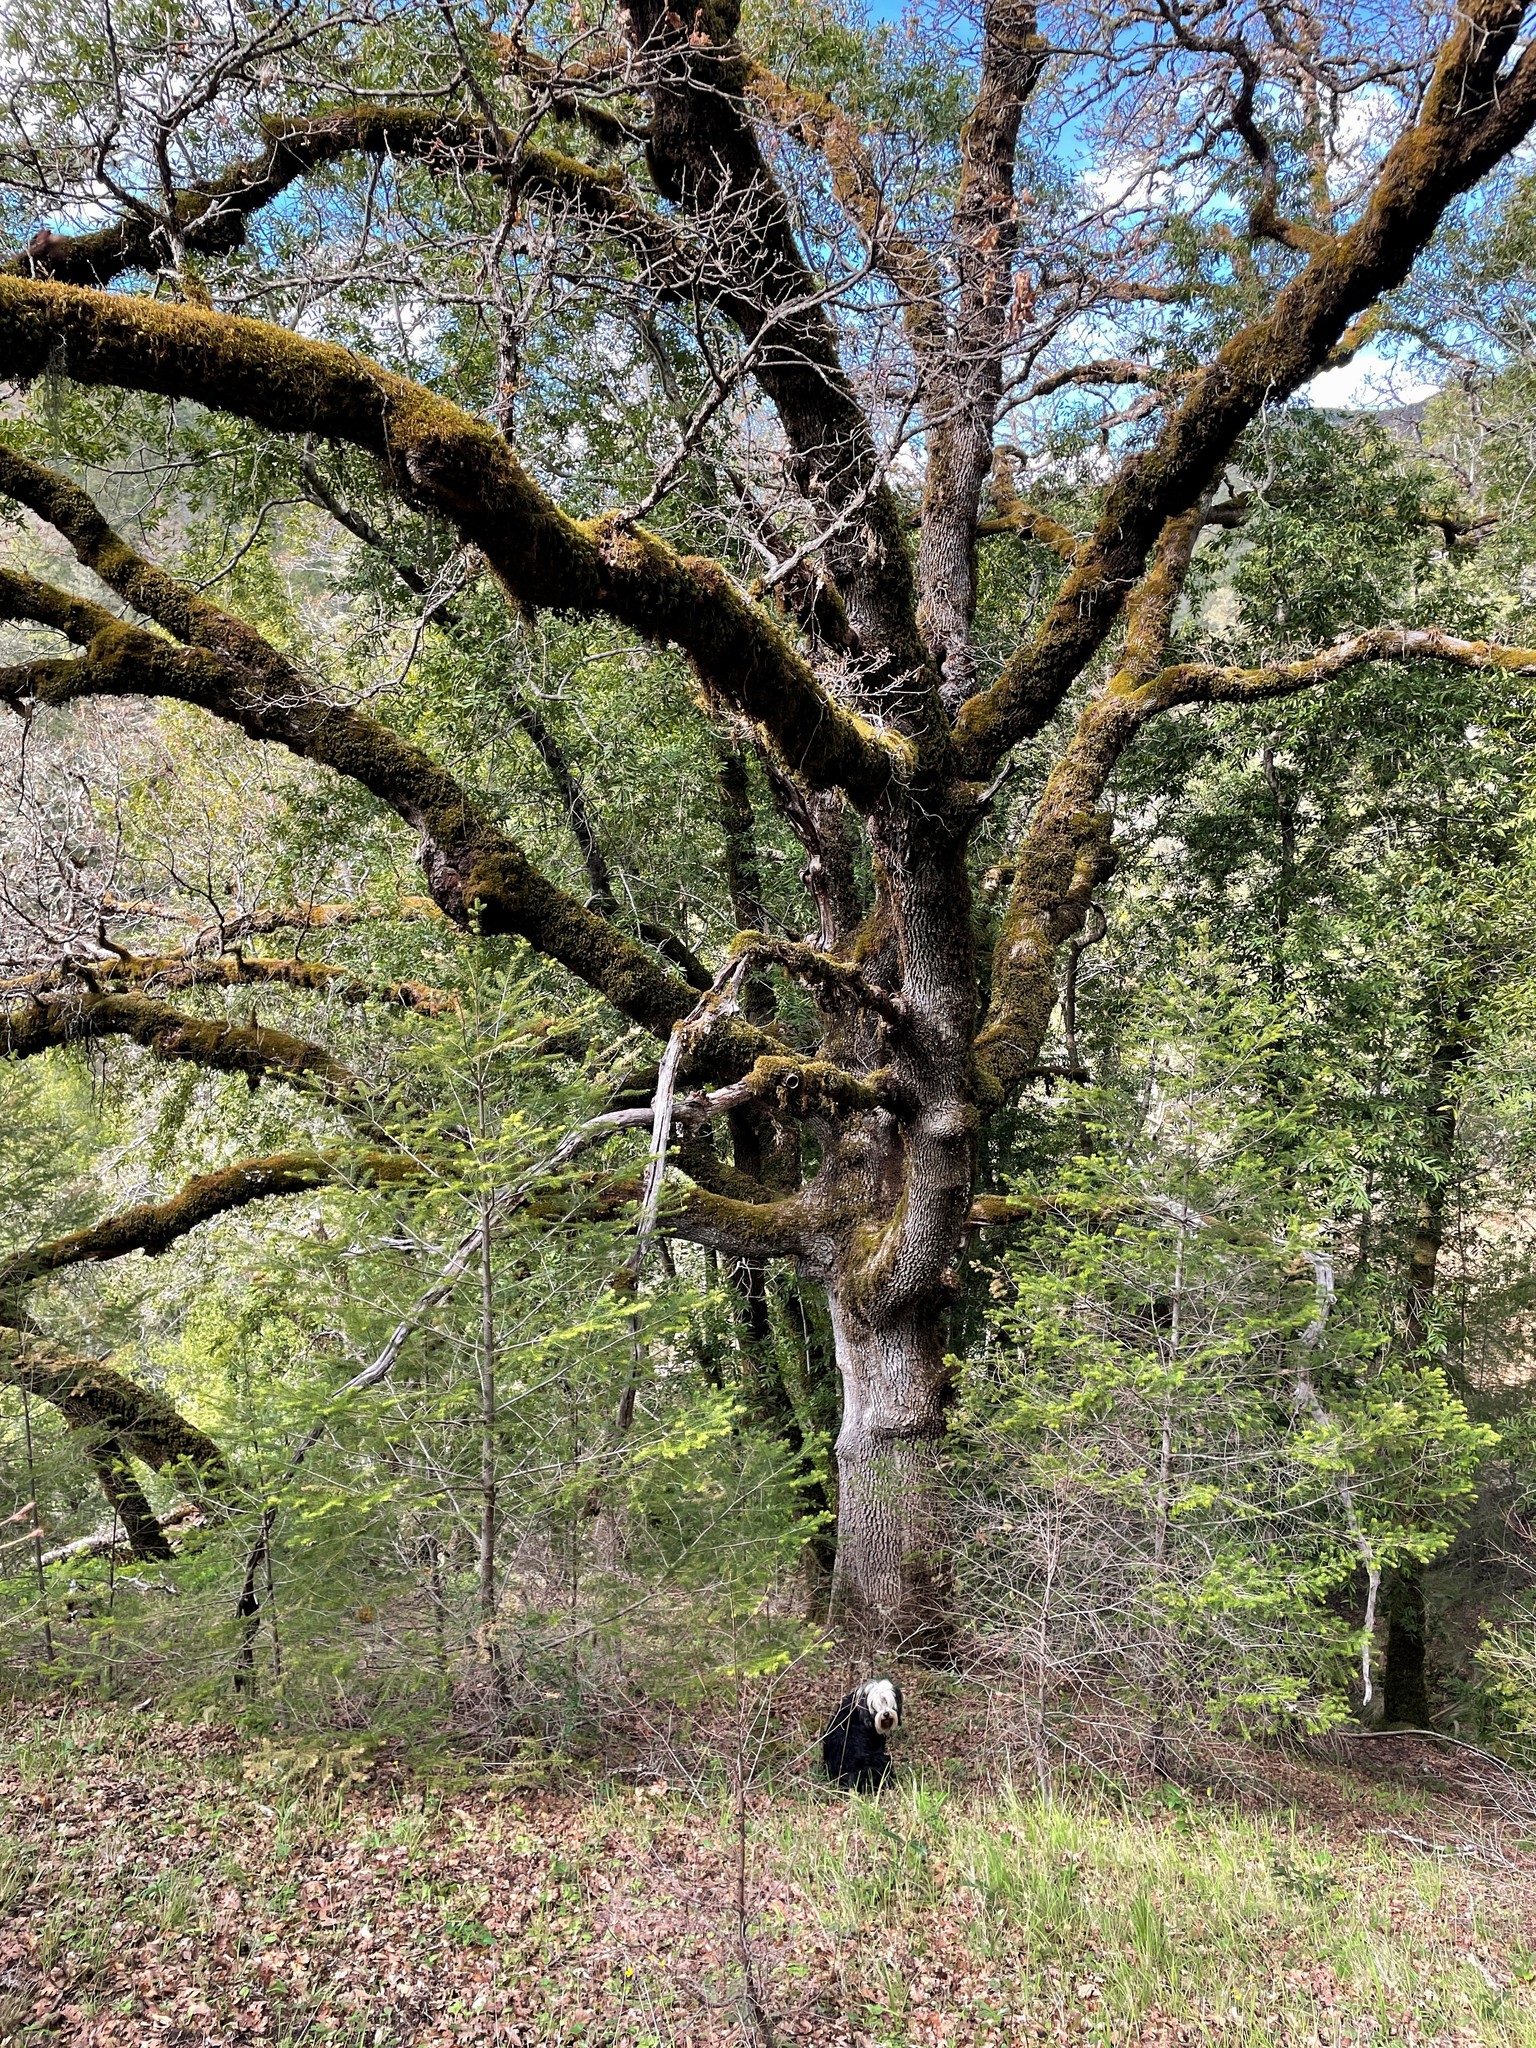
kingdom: Plantae
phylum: Tracheophyta
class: Magnoliopsida
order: Fagales
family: Fagaceae
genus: Quercus
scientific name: Quercus garryana
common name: Garry oak
